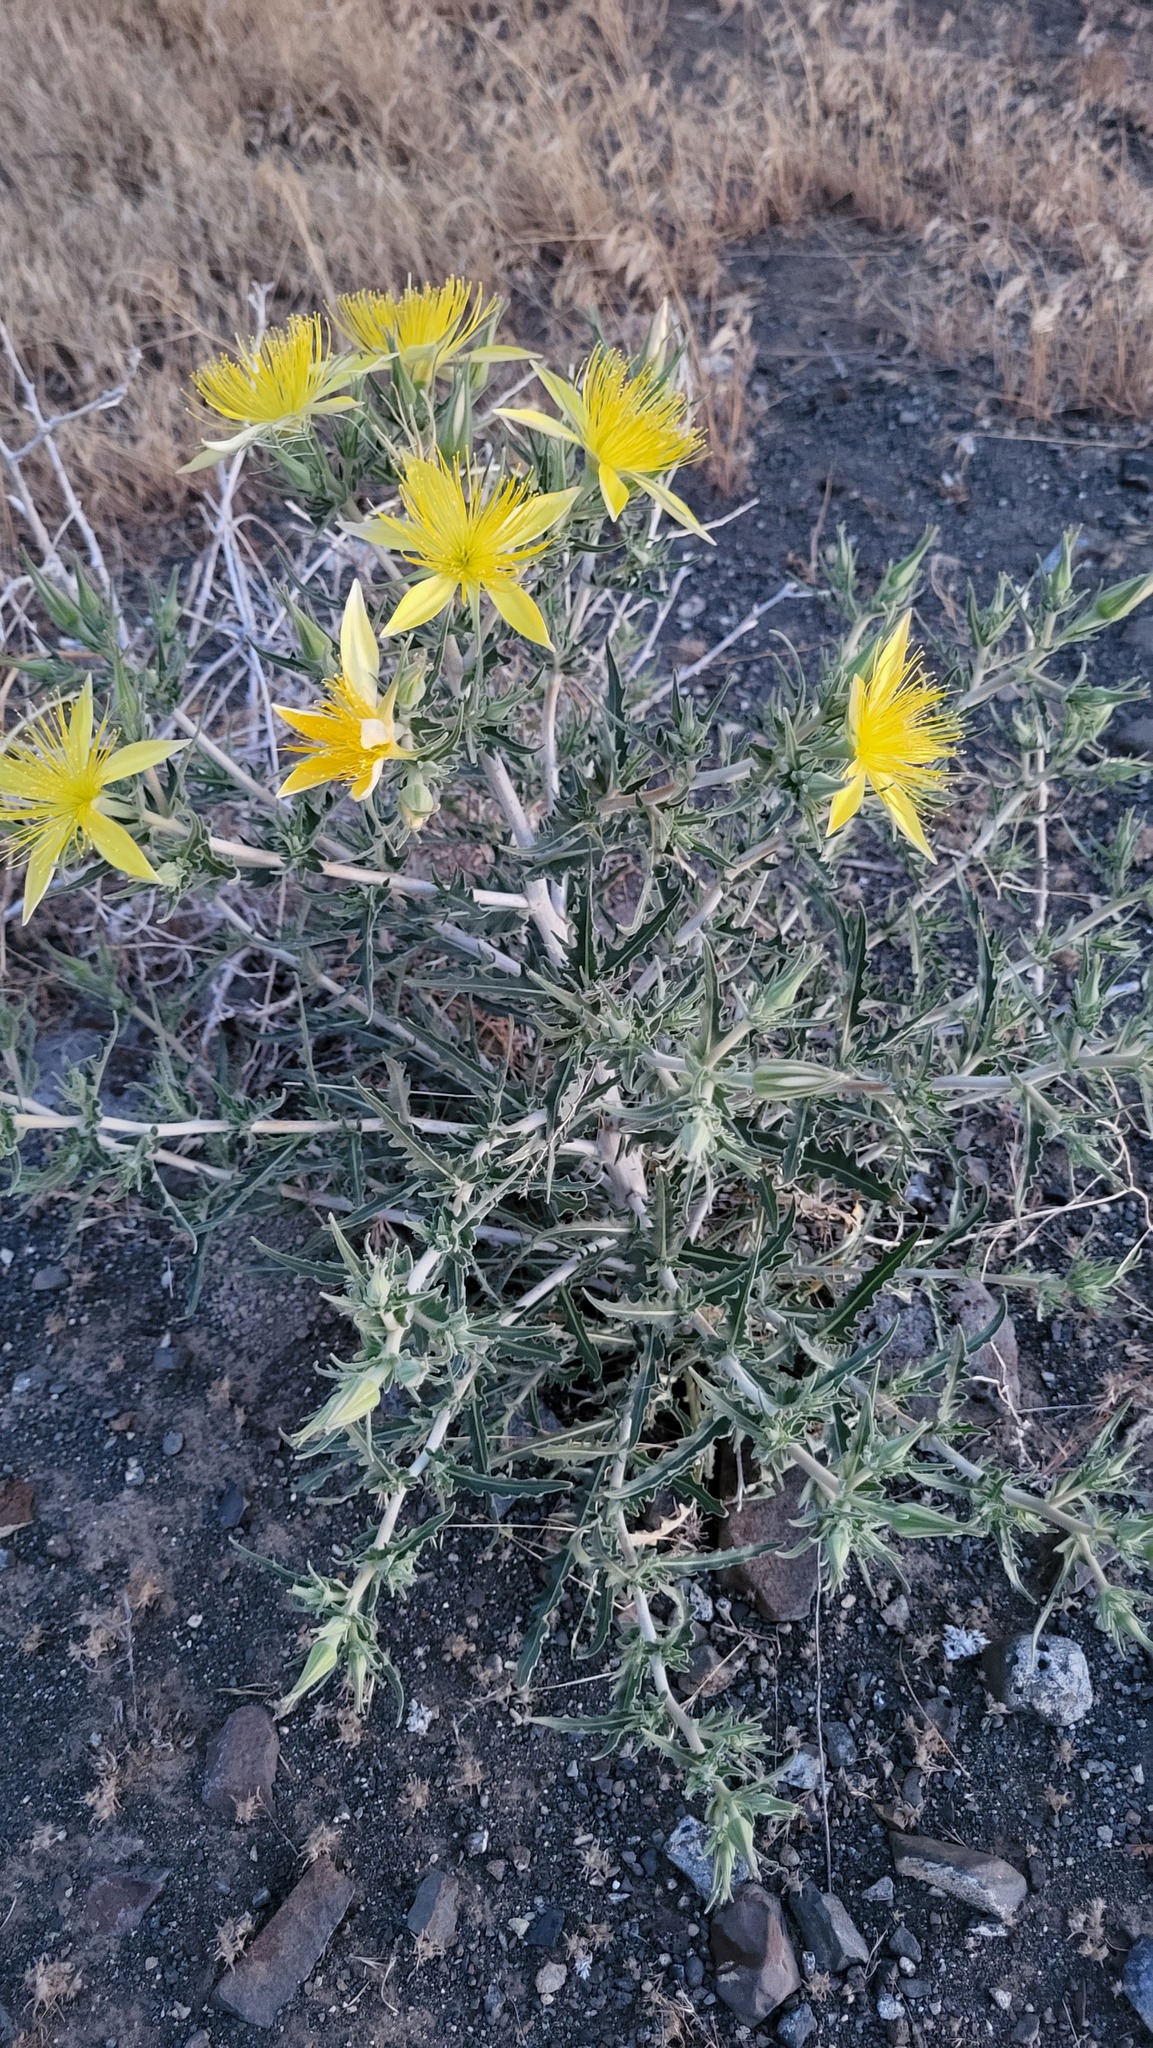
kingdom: Plantae
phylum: Tracheophyta
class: Magnoliopsida
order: Cornales
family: Loasaceae
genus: Mentzelia
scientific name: Mentzelia laevicaulis
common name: Smooth-stem blazingstar
